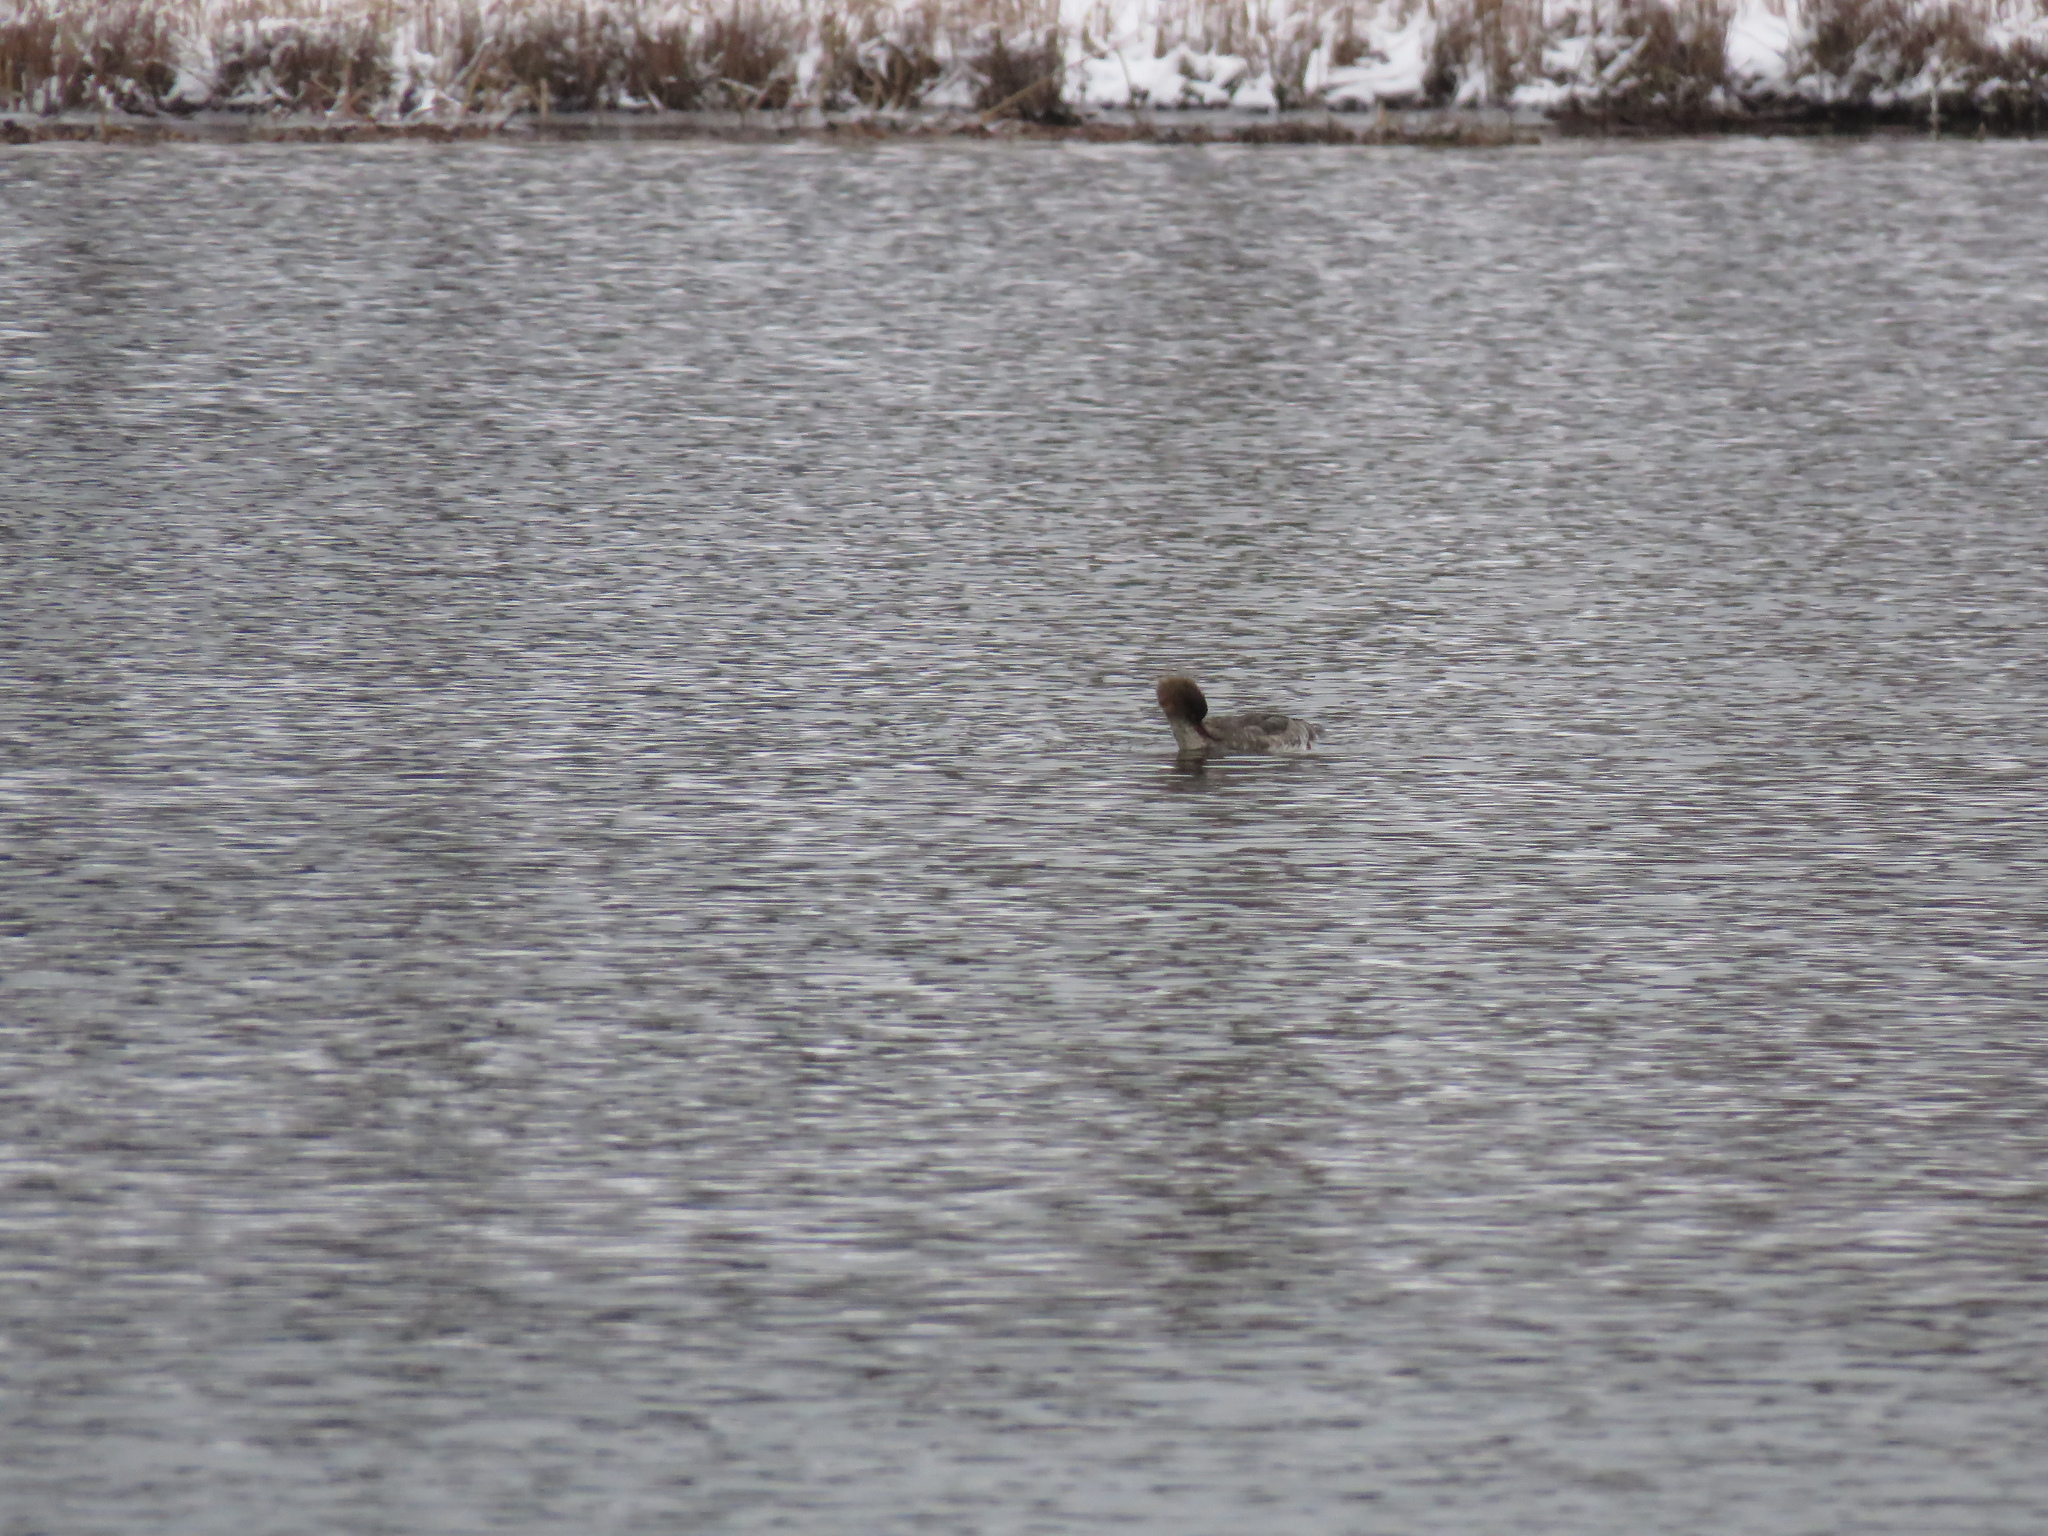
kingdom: Animalia
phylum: Chordata
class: Aves
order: Anseriformes
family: Anatidae
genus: Mergus
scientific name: Mergus serrator
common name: Red-breasted merganser
